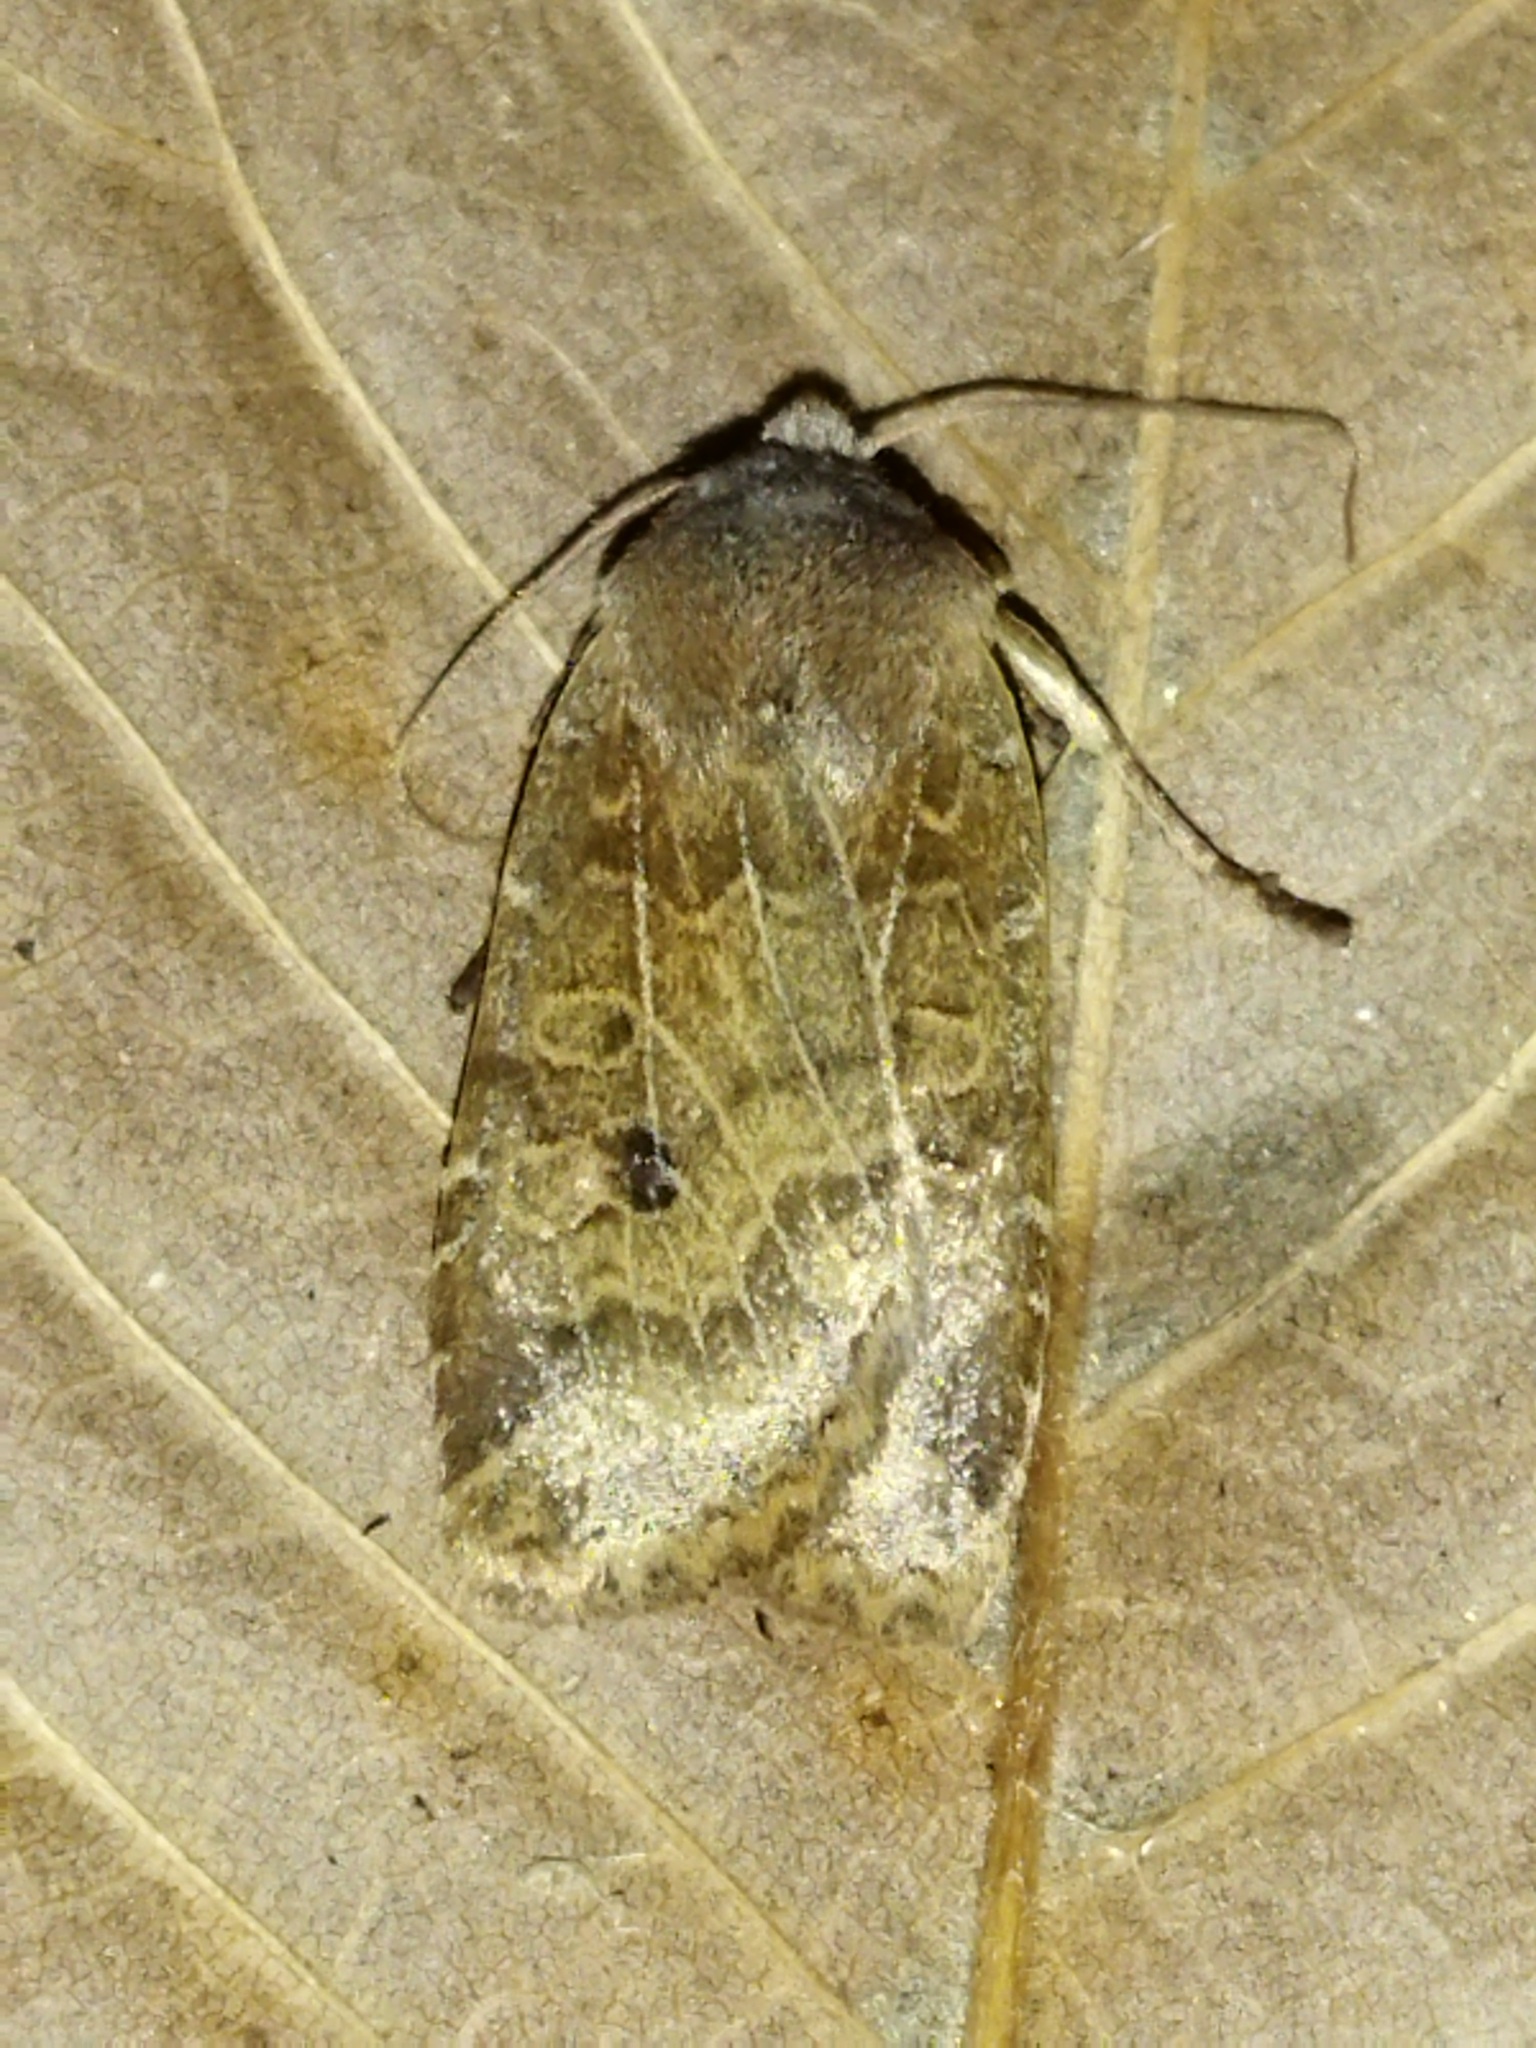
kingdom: Animalia
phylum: Arthropoda
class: Insecta
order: Lepidoptera
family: Noctuidae
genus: Conistra
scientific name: Conistra vaccinii
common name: Chestnut
